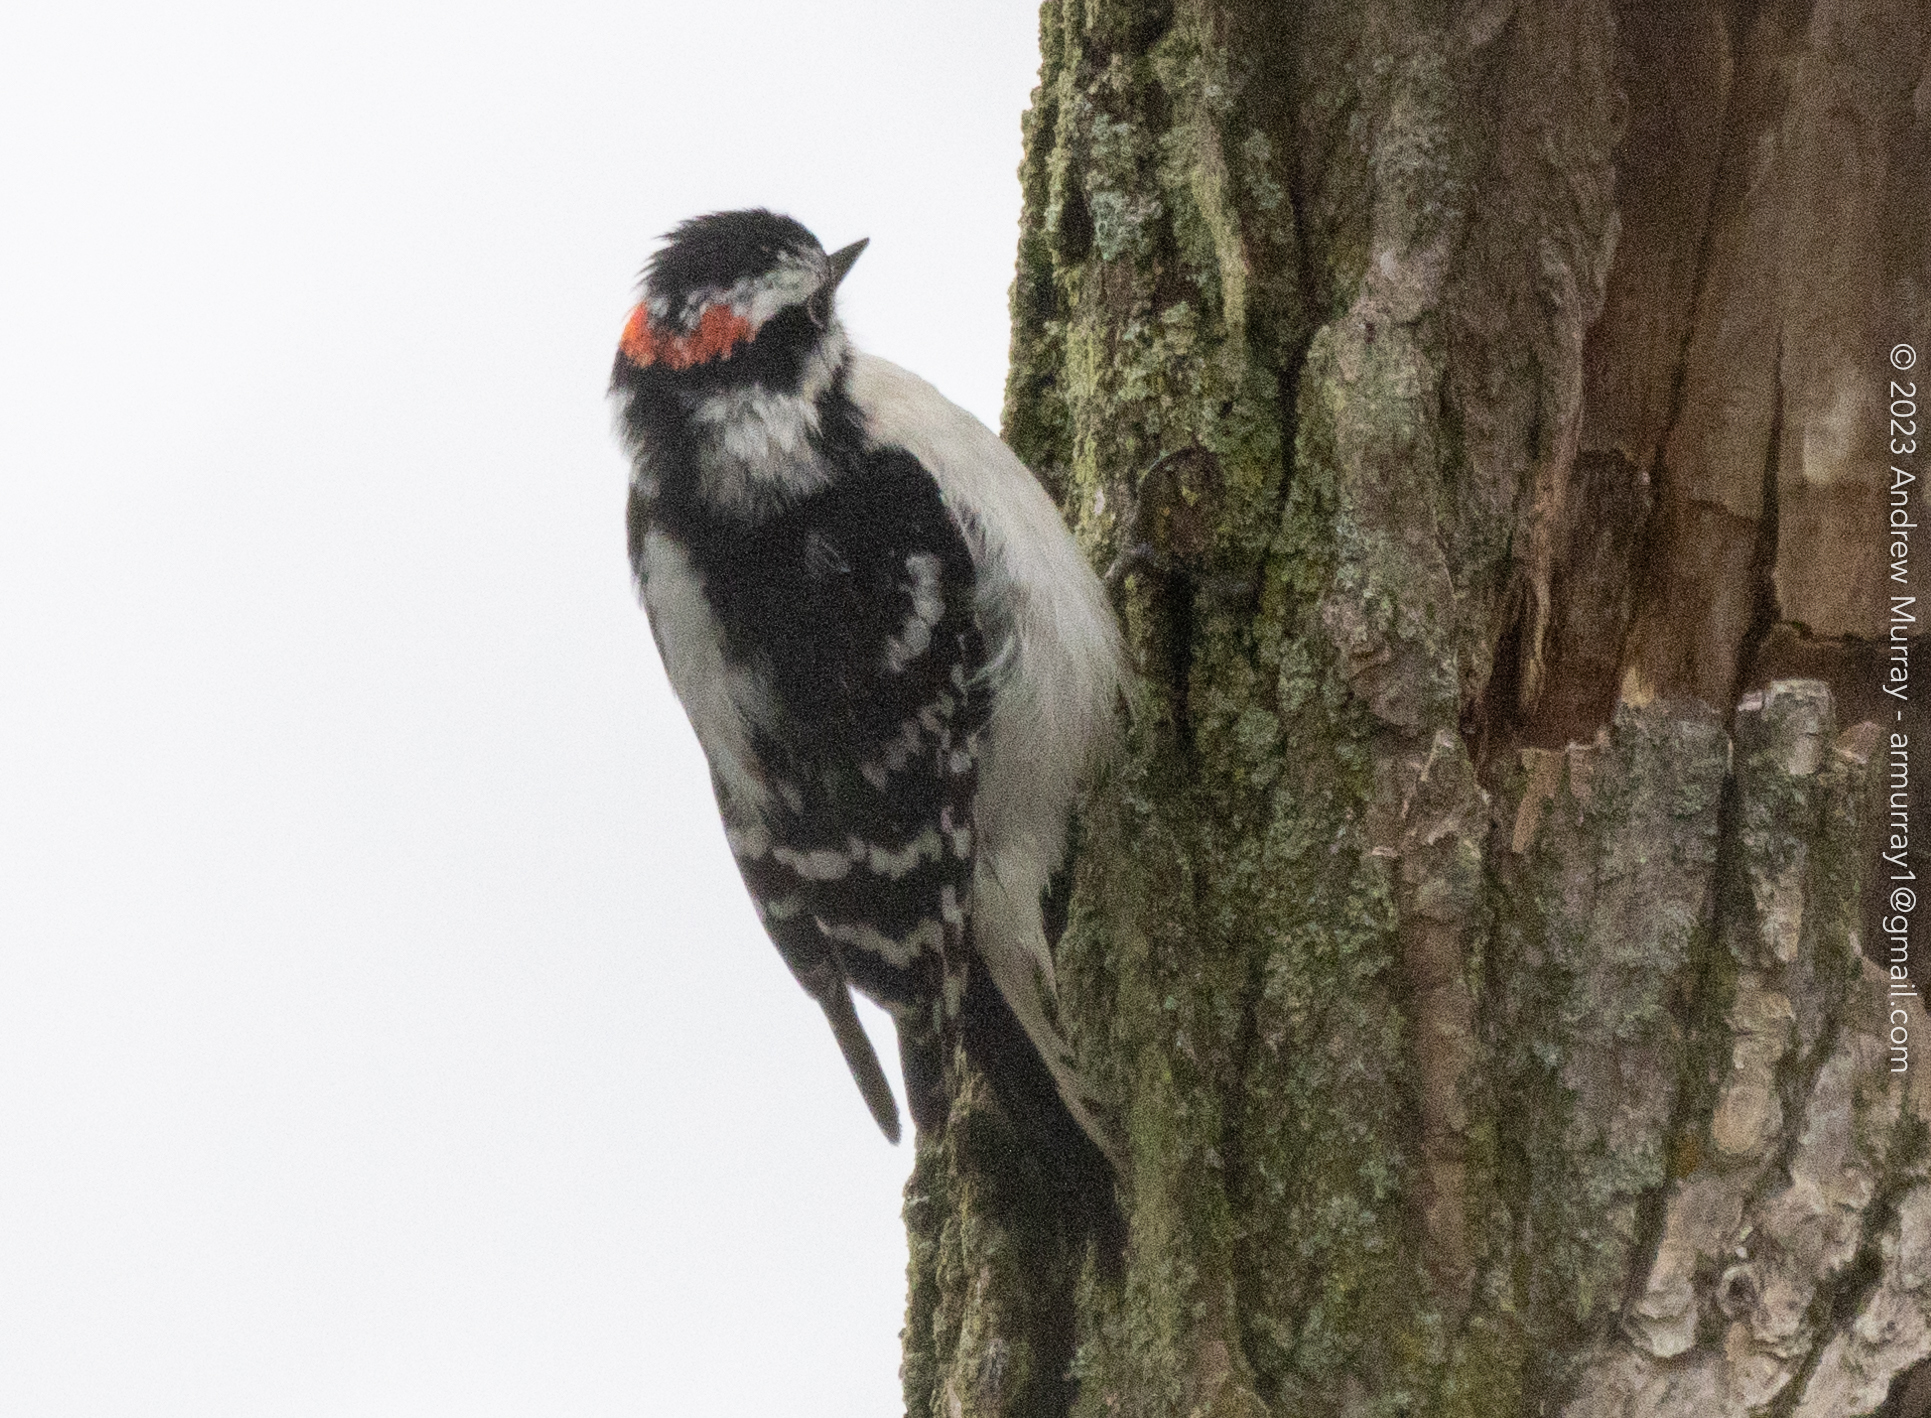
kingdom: Animalia
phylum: Chordata
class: Aves
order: Piciformes
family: Picidae
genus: Dryobates
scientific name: Dryobates pubescens
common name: Downy woodpecker
